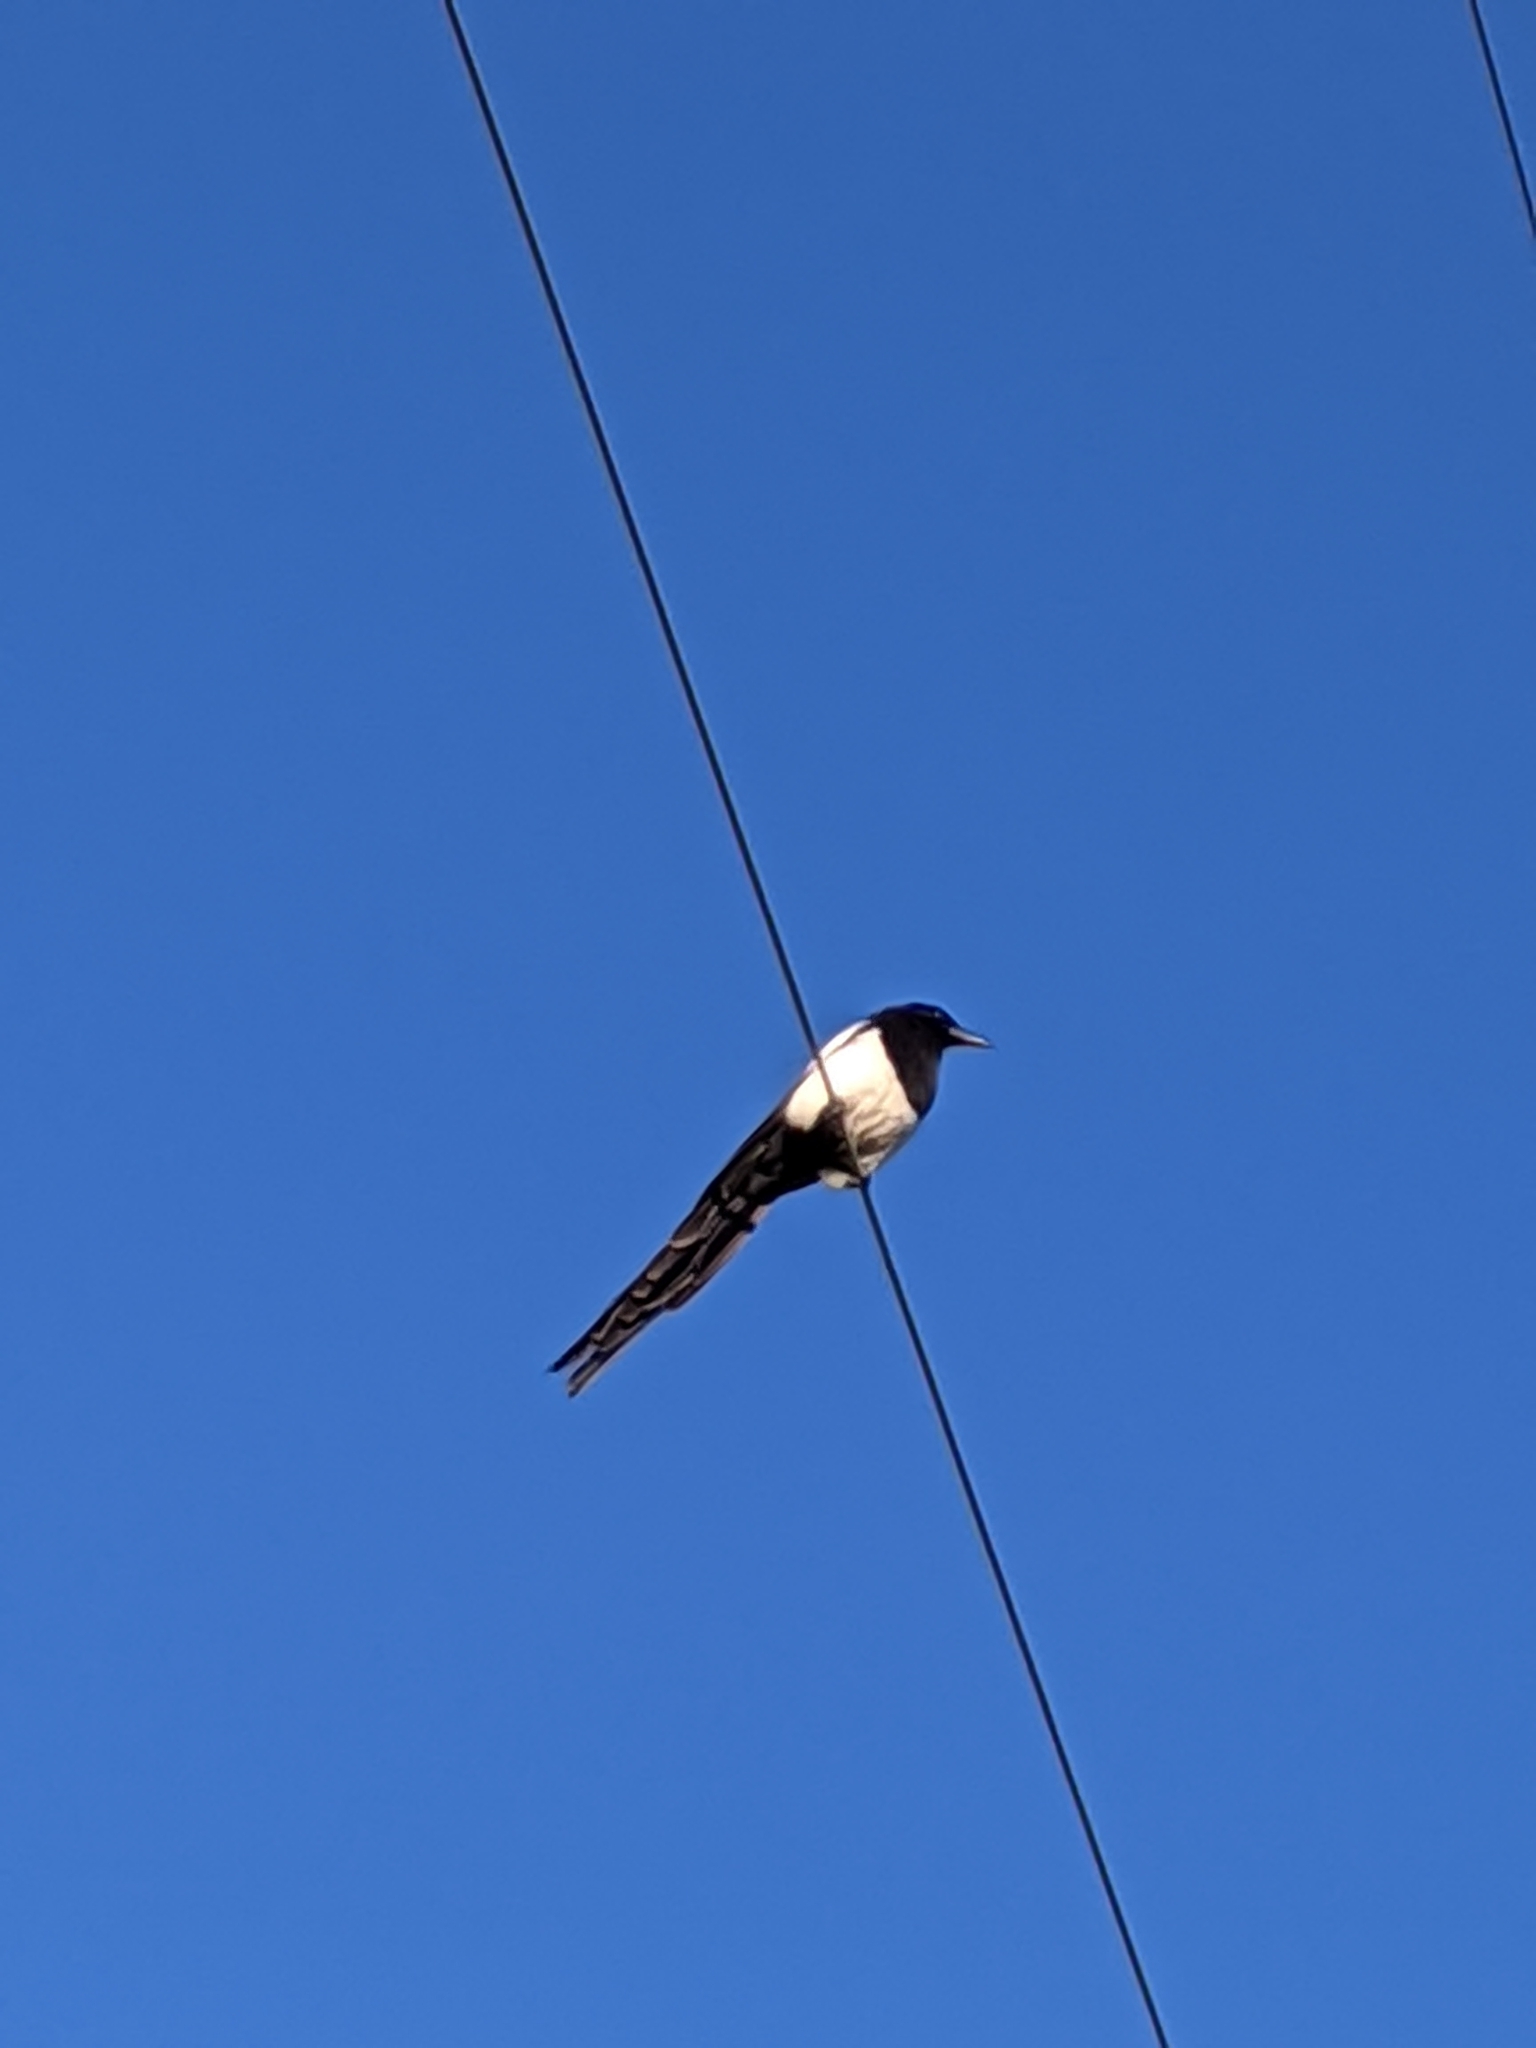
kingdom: Animalia
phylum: Chordata
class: Aves
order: Passeriformes
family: Corvidae
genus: Pica
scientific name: Pica hudsonia
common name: Black-billed magpie
